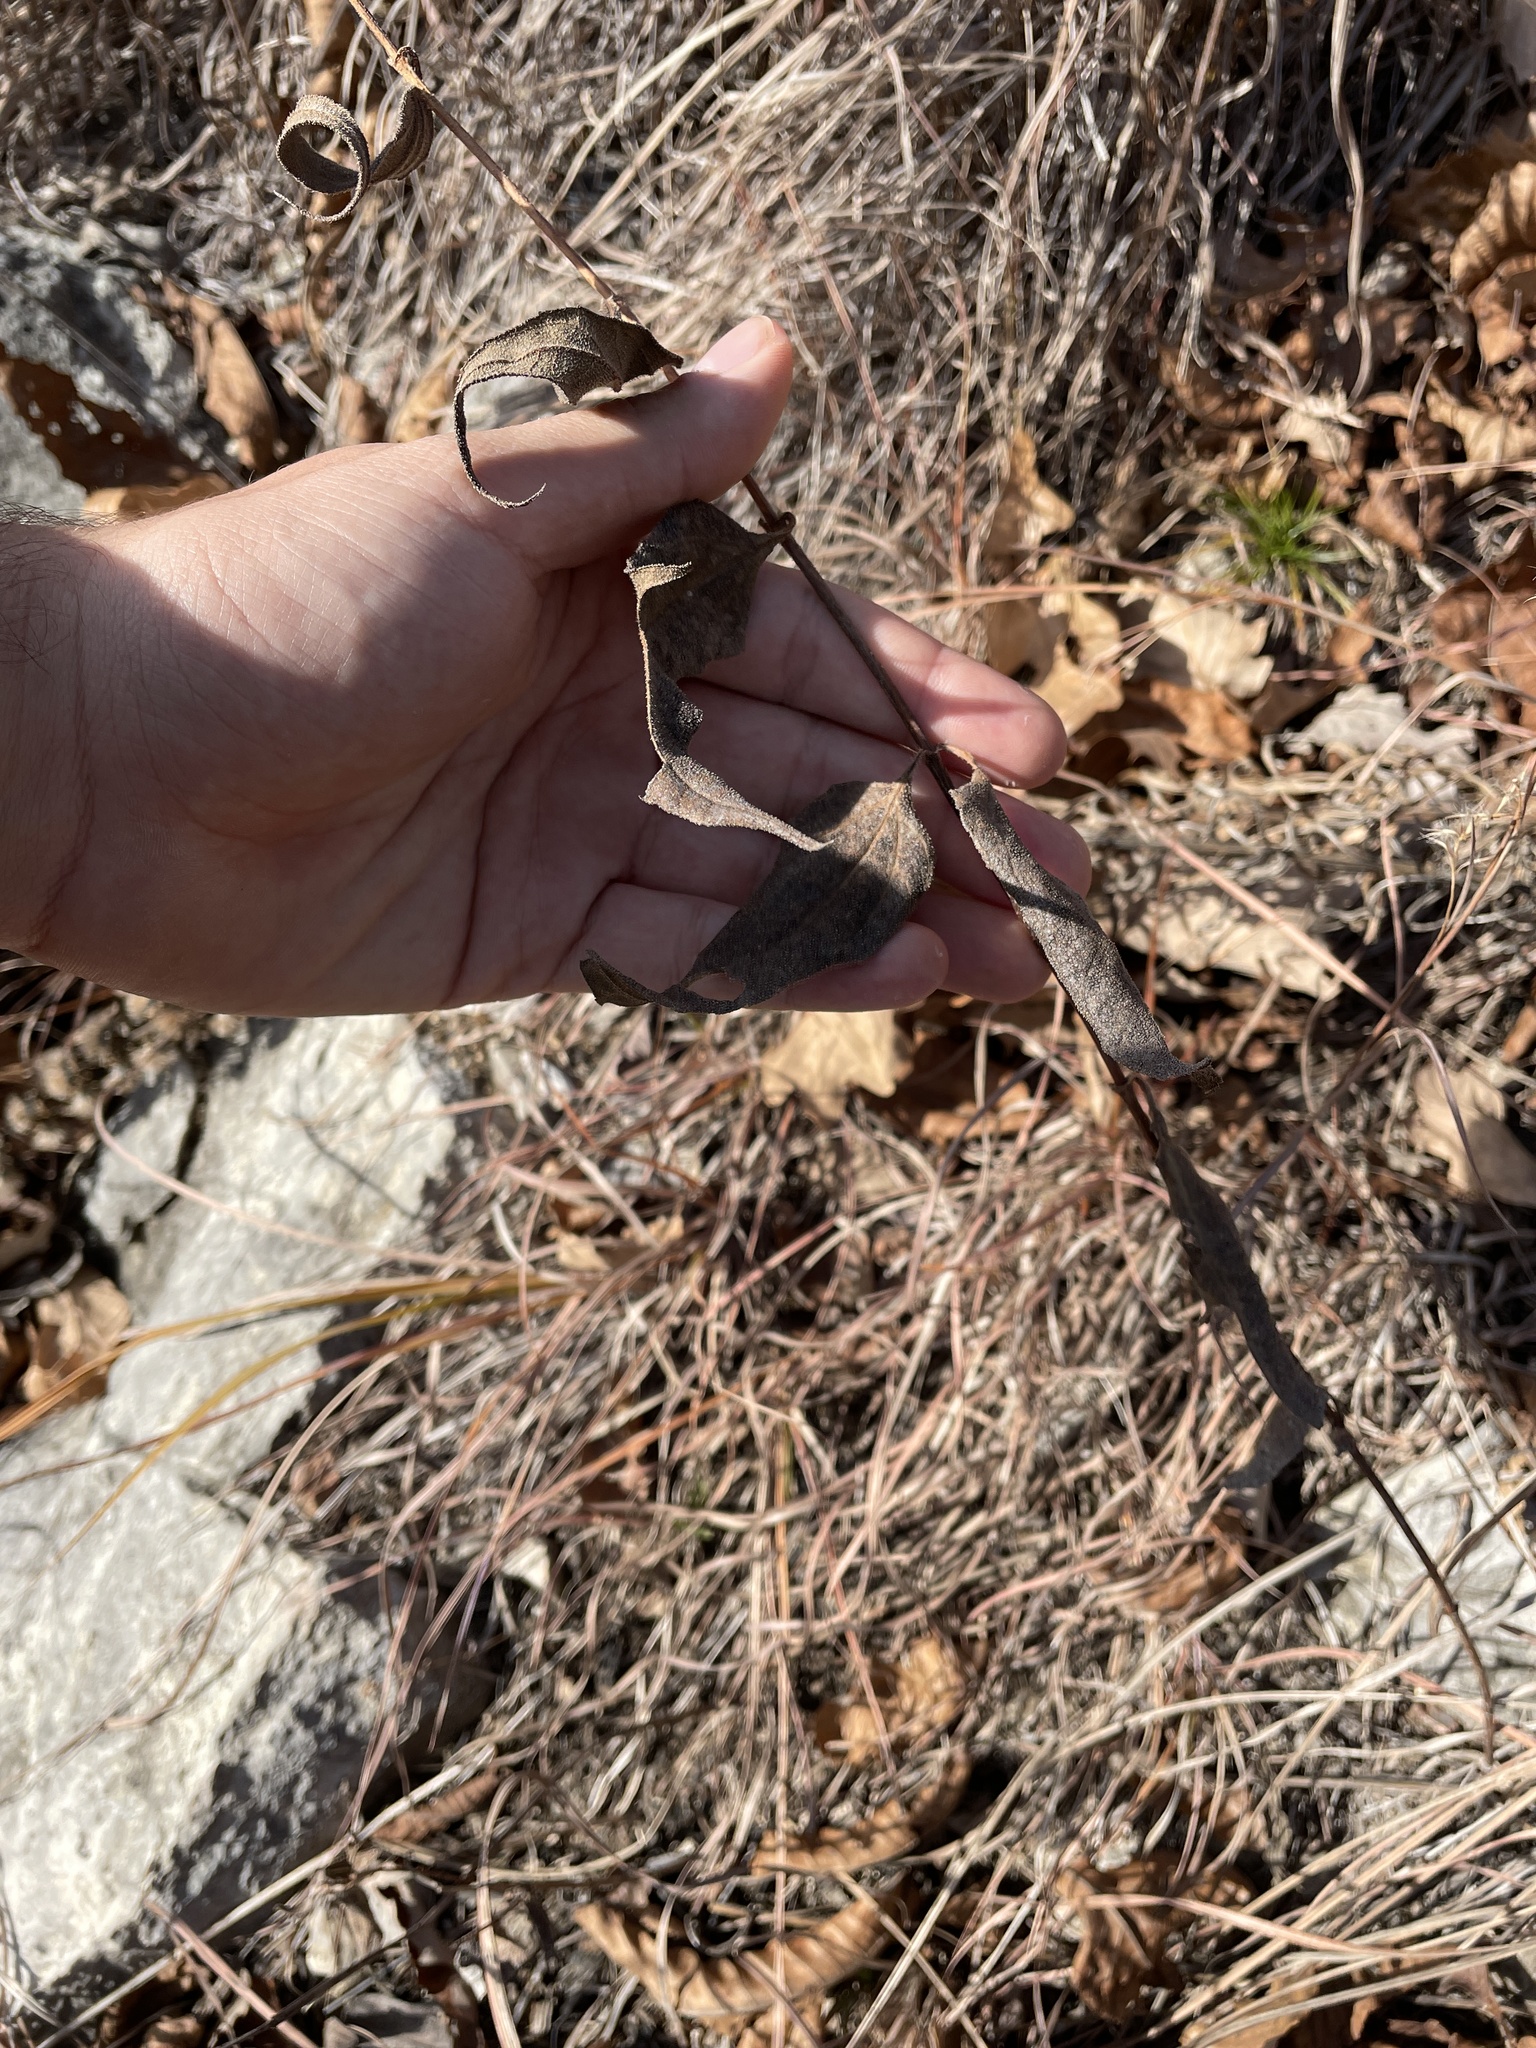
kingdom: Plantae
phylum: Tracheophyta
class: Magnoliopsida
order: Asterales
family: Asteraceae
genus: Helianthus
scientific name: Helianthus divaricatus
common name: Divergent sunflower
